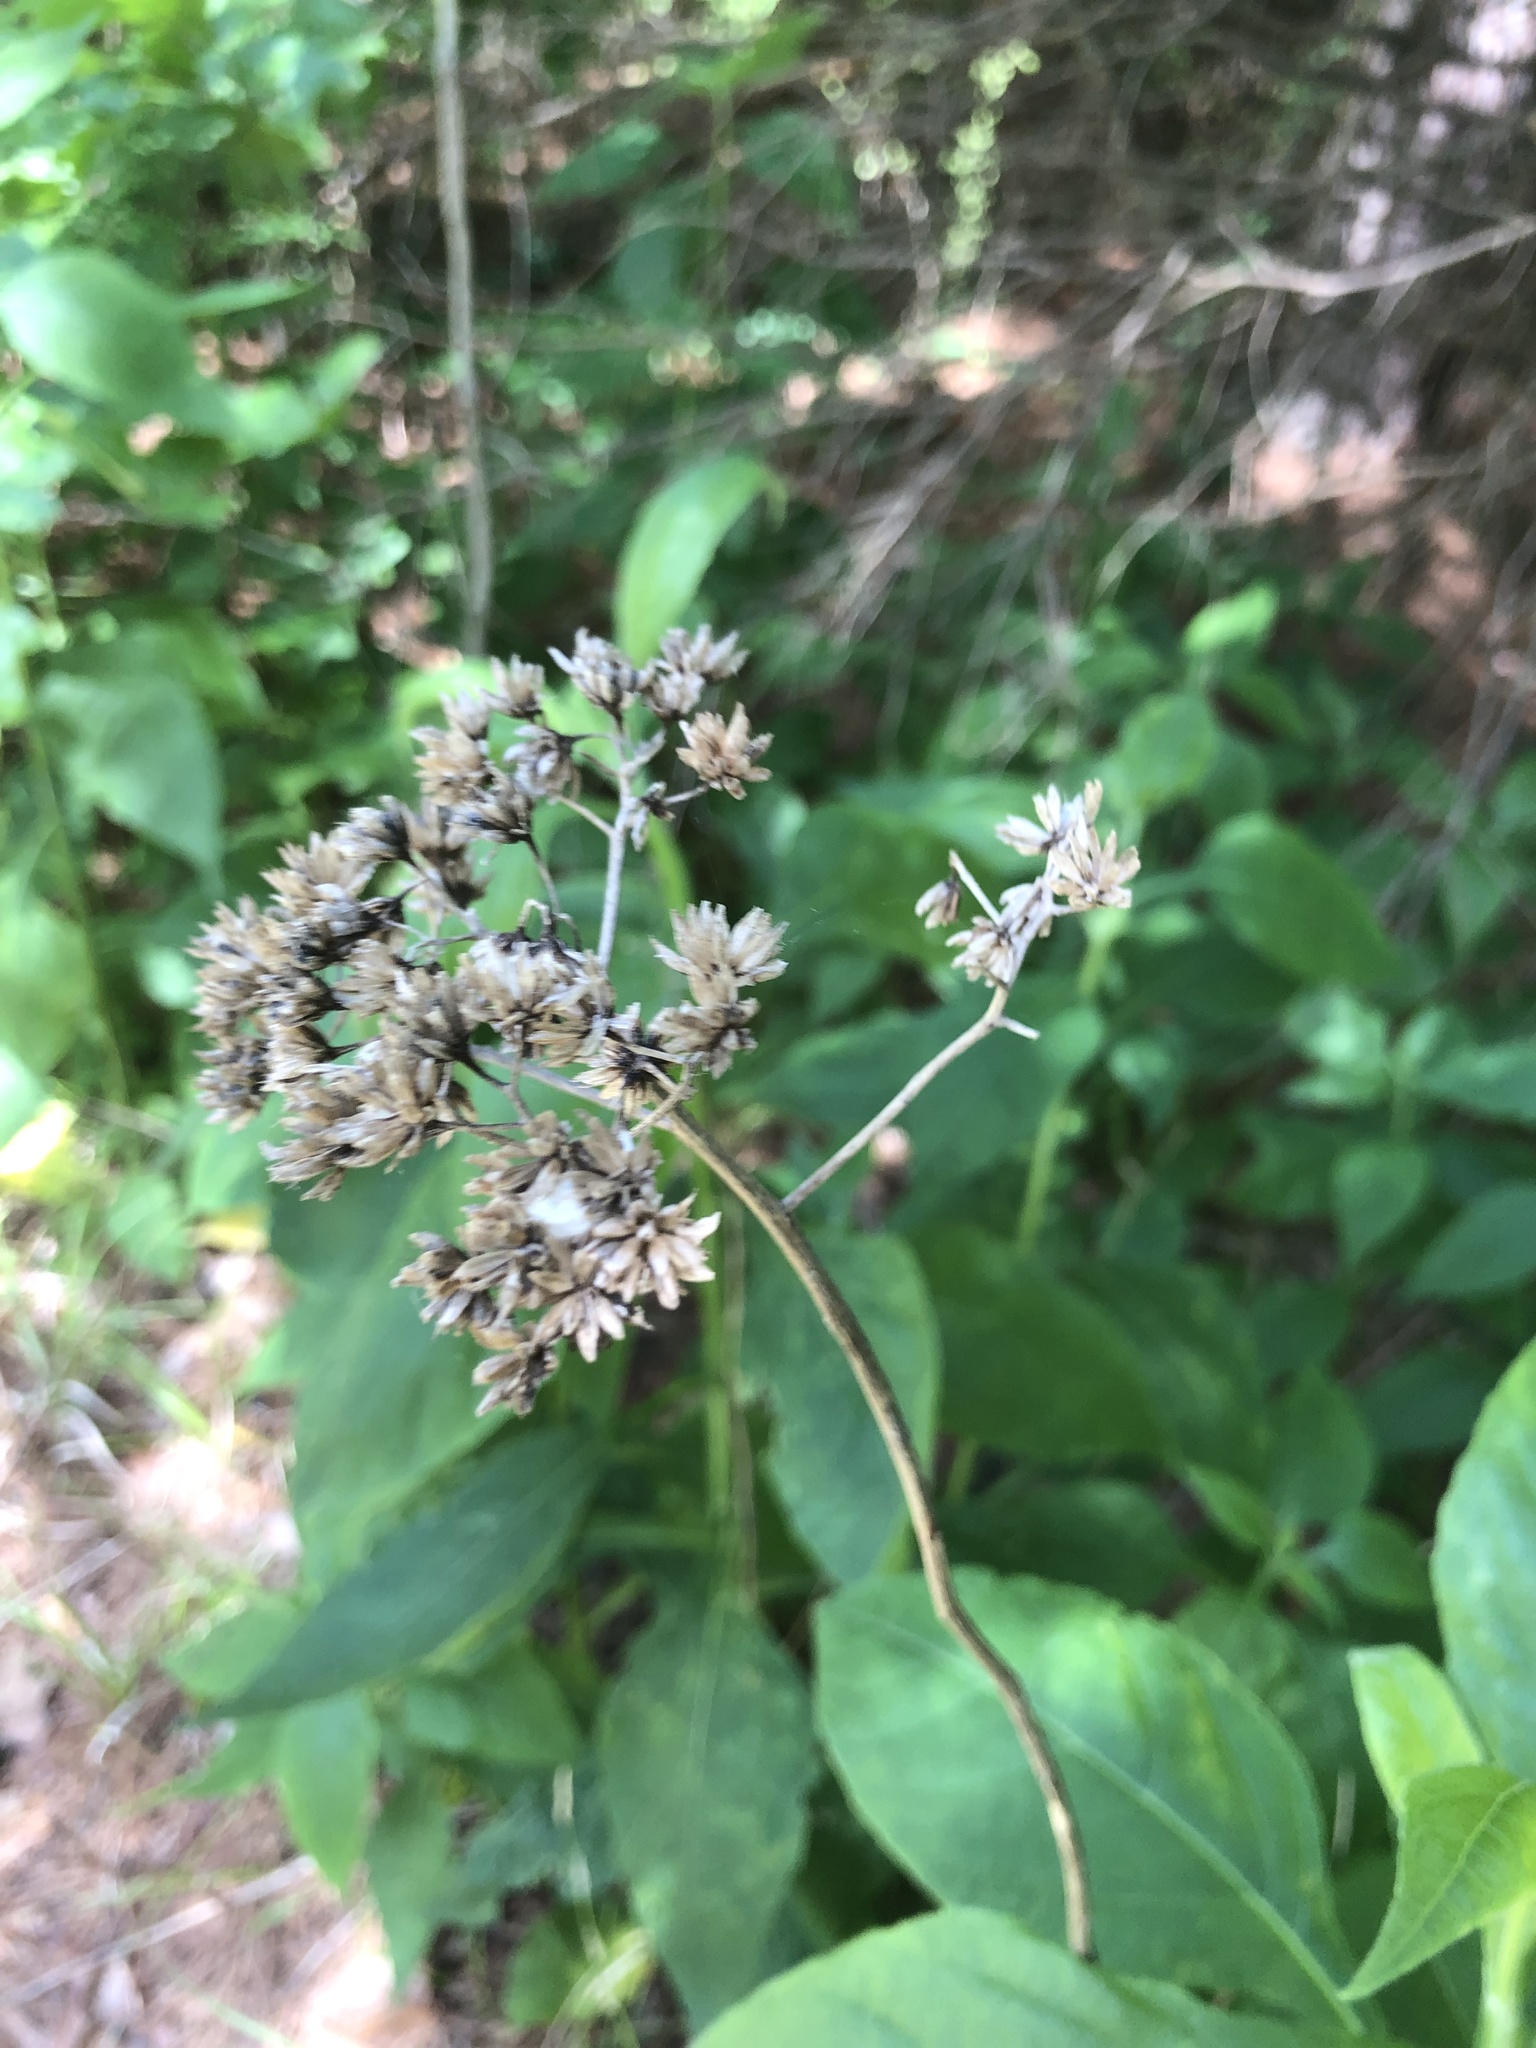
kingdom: Plantae
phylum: Tracheophyta
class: Magnoliopsida
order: Asterales
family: Asteraceae
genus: Verbesina
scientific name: Verbesina virginica
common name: Frostweed
